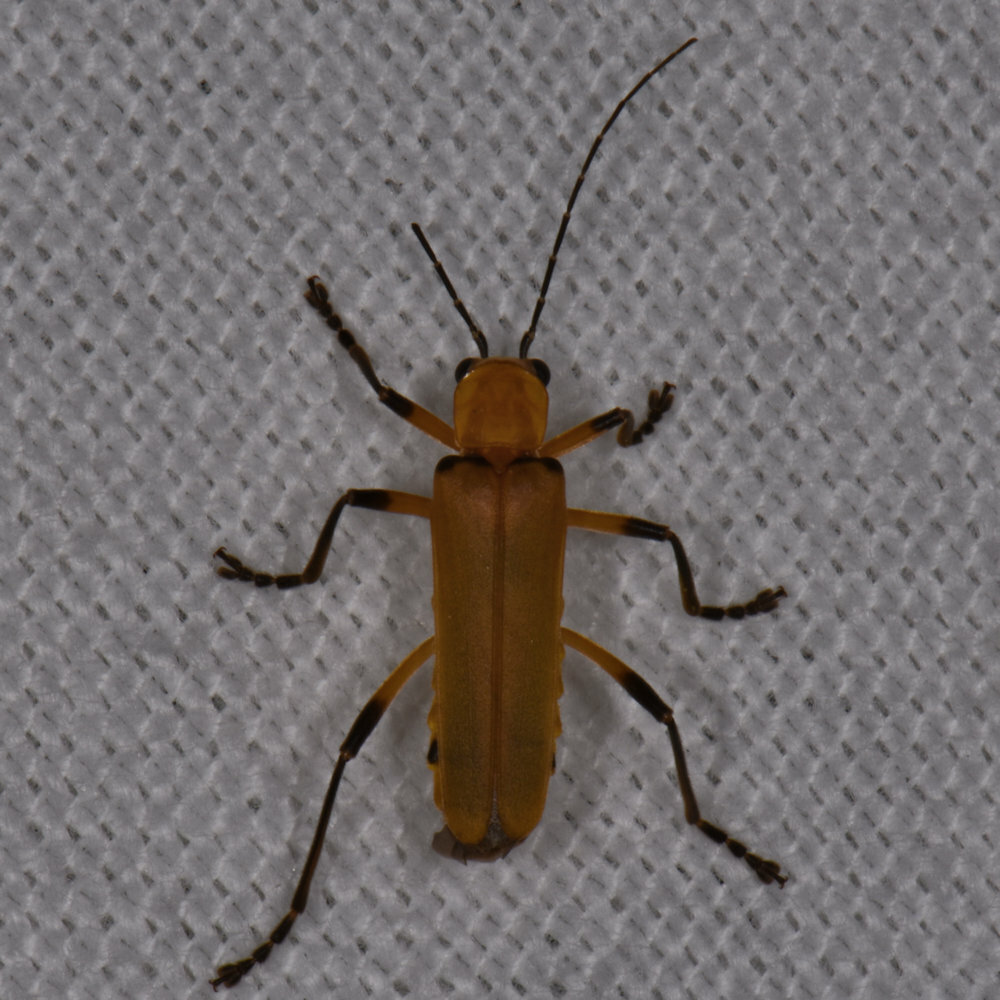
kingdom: Animalia
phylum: Arthropoda
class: Insecta
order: Coleoptera
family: Cantharidae
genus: Chauliognathus
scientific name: Chauliognathus
